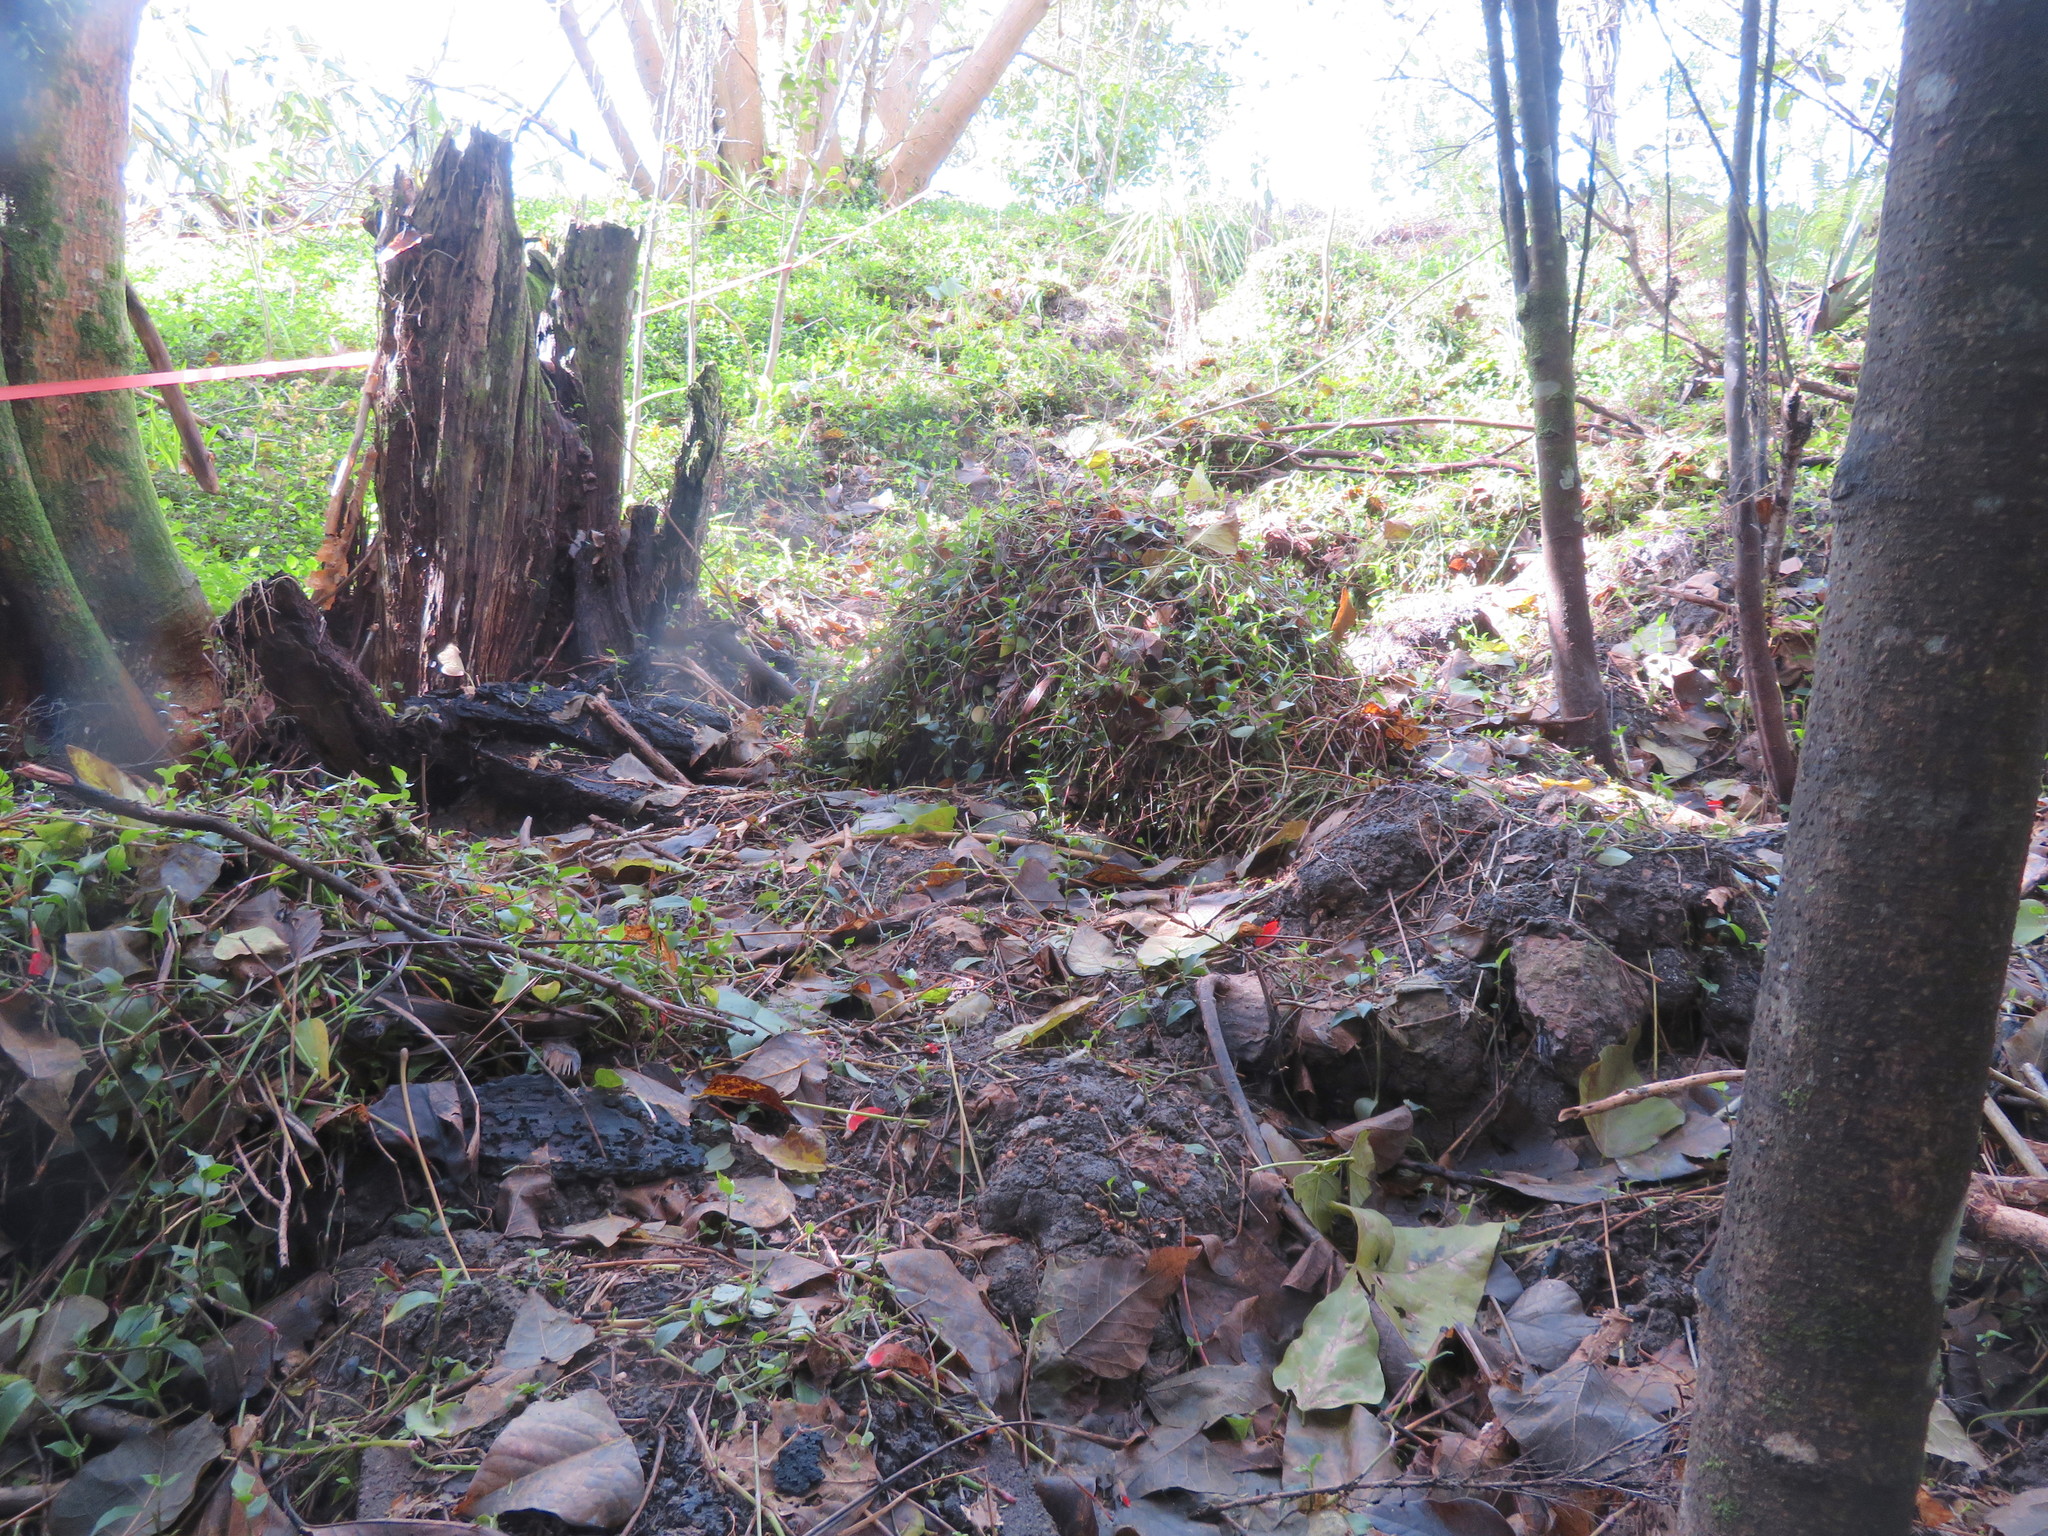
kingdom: Plantae
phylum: Tracheophyta
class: Liliopsida
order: Commelinales
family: Commelinaceae
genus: Tradescantia
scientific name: Tradescantia fluminensis
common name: Wandering-jew
